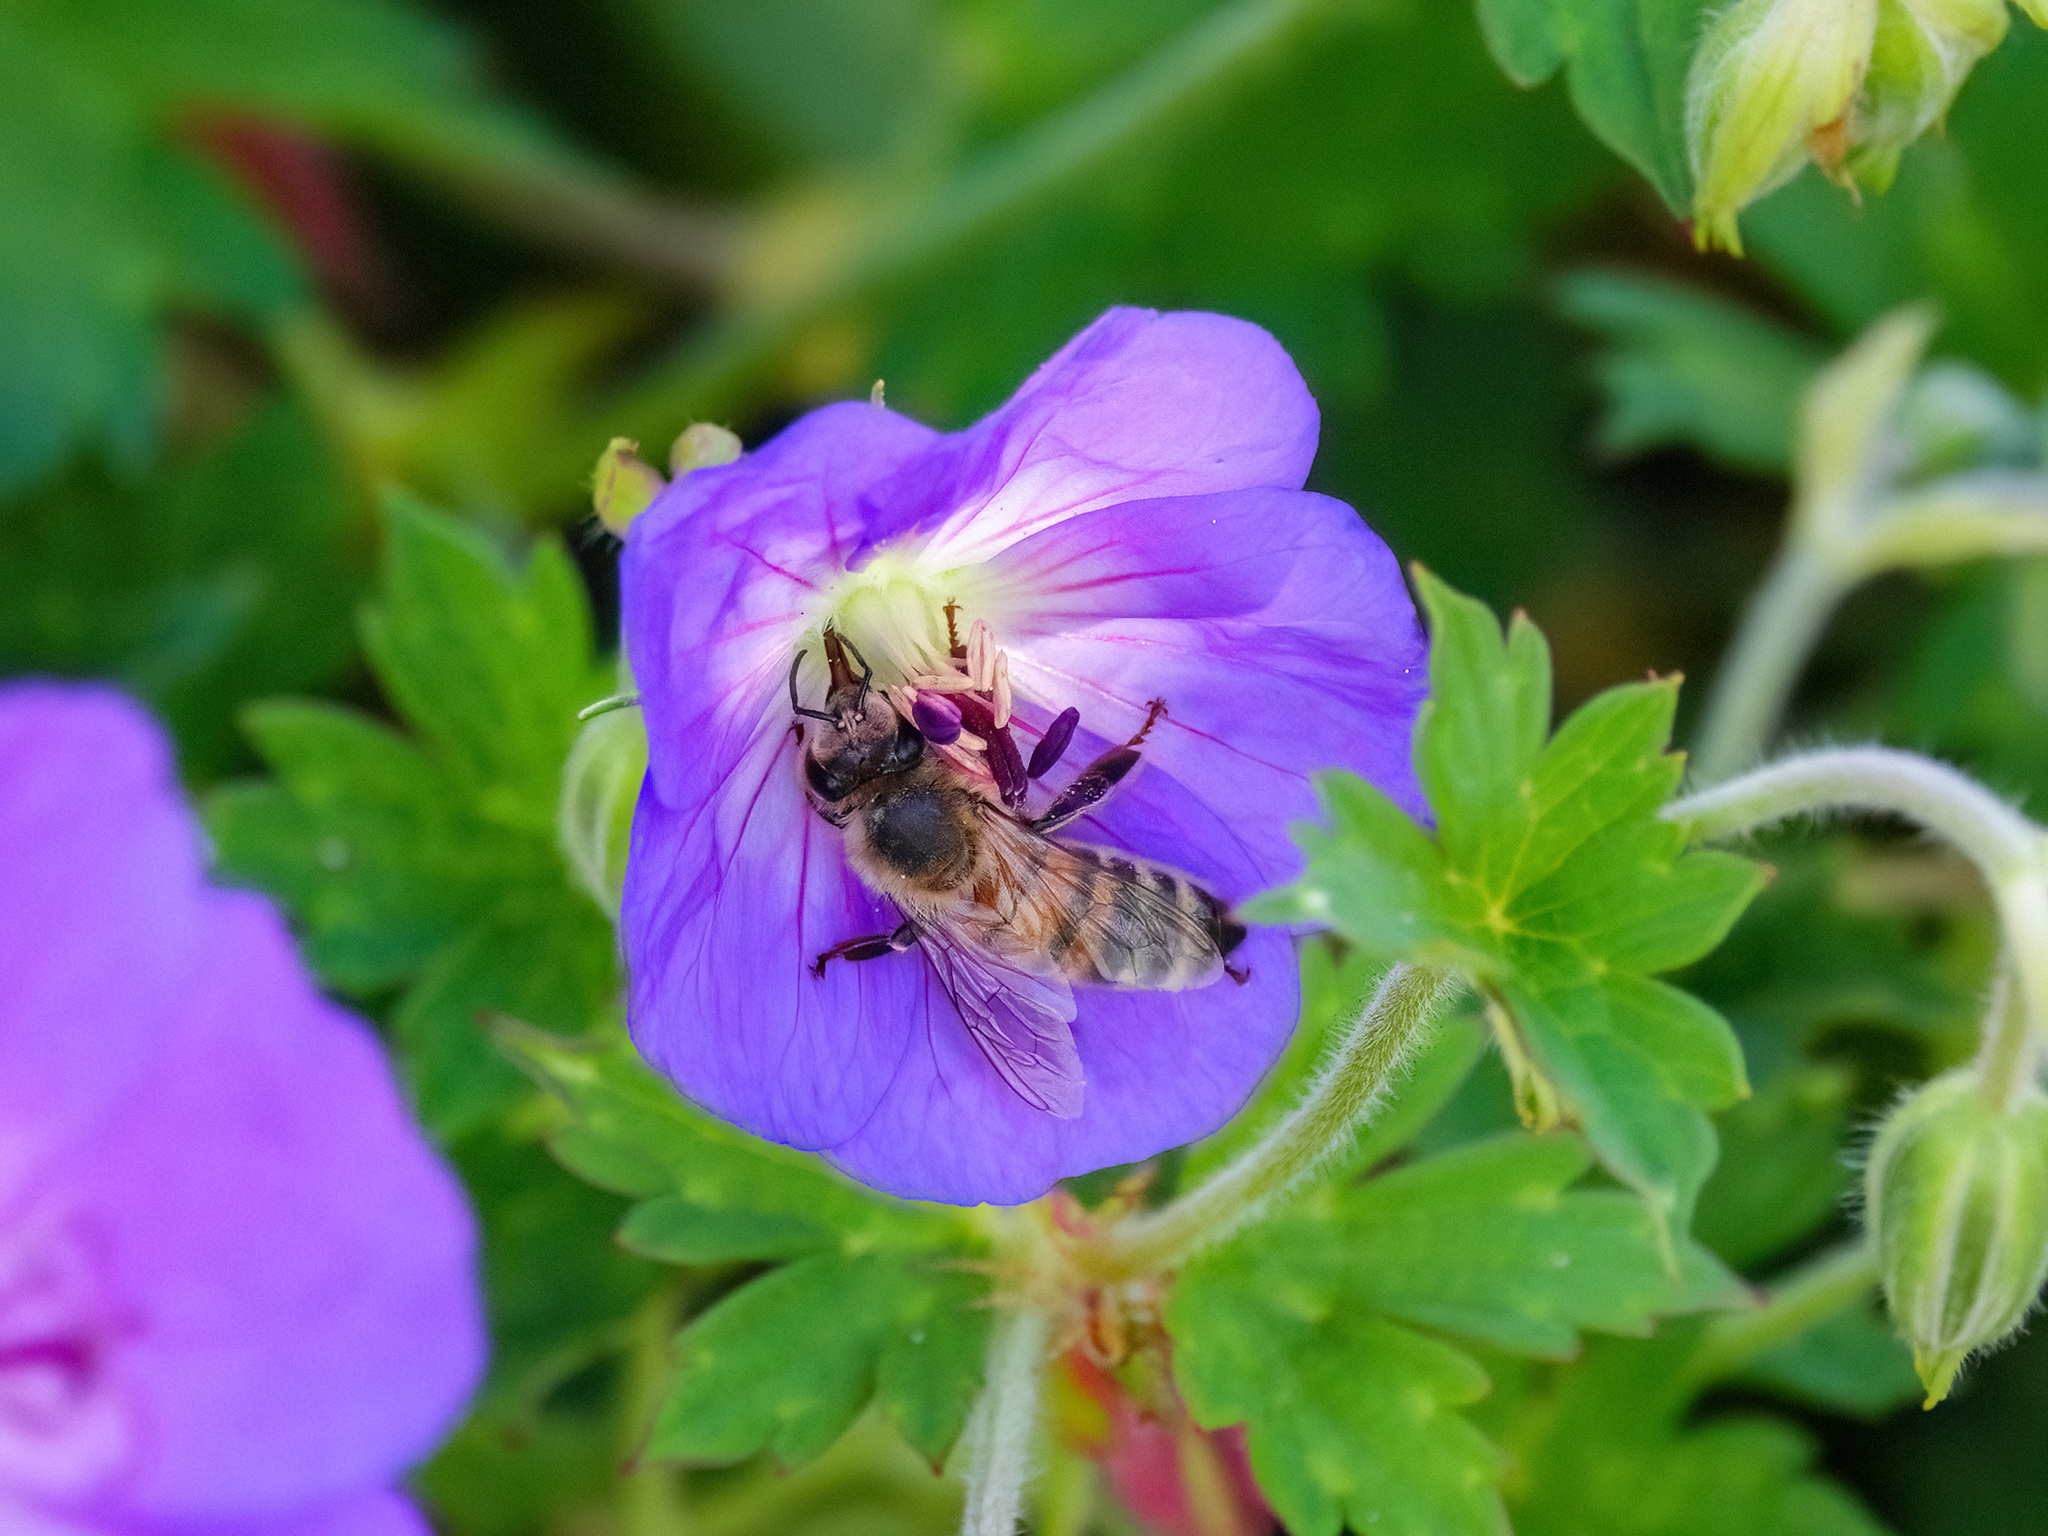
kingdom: Animalia
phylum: Arthropoda
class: Insecta
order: Hymenoptera
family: Apidae
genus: Apis
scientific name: Apis mellifera
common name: Honey bee
